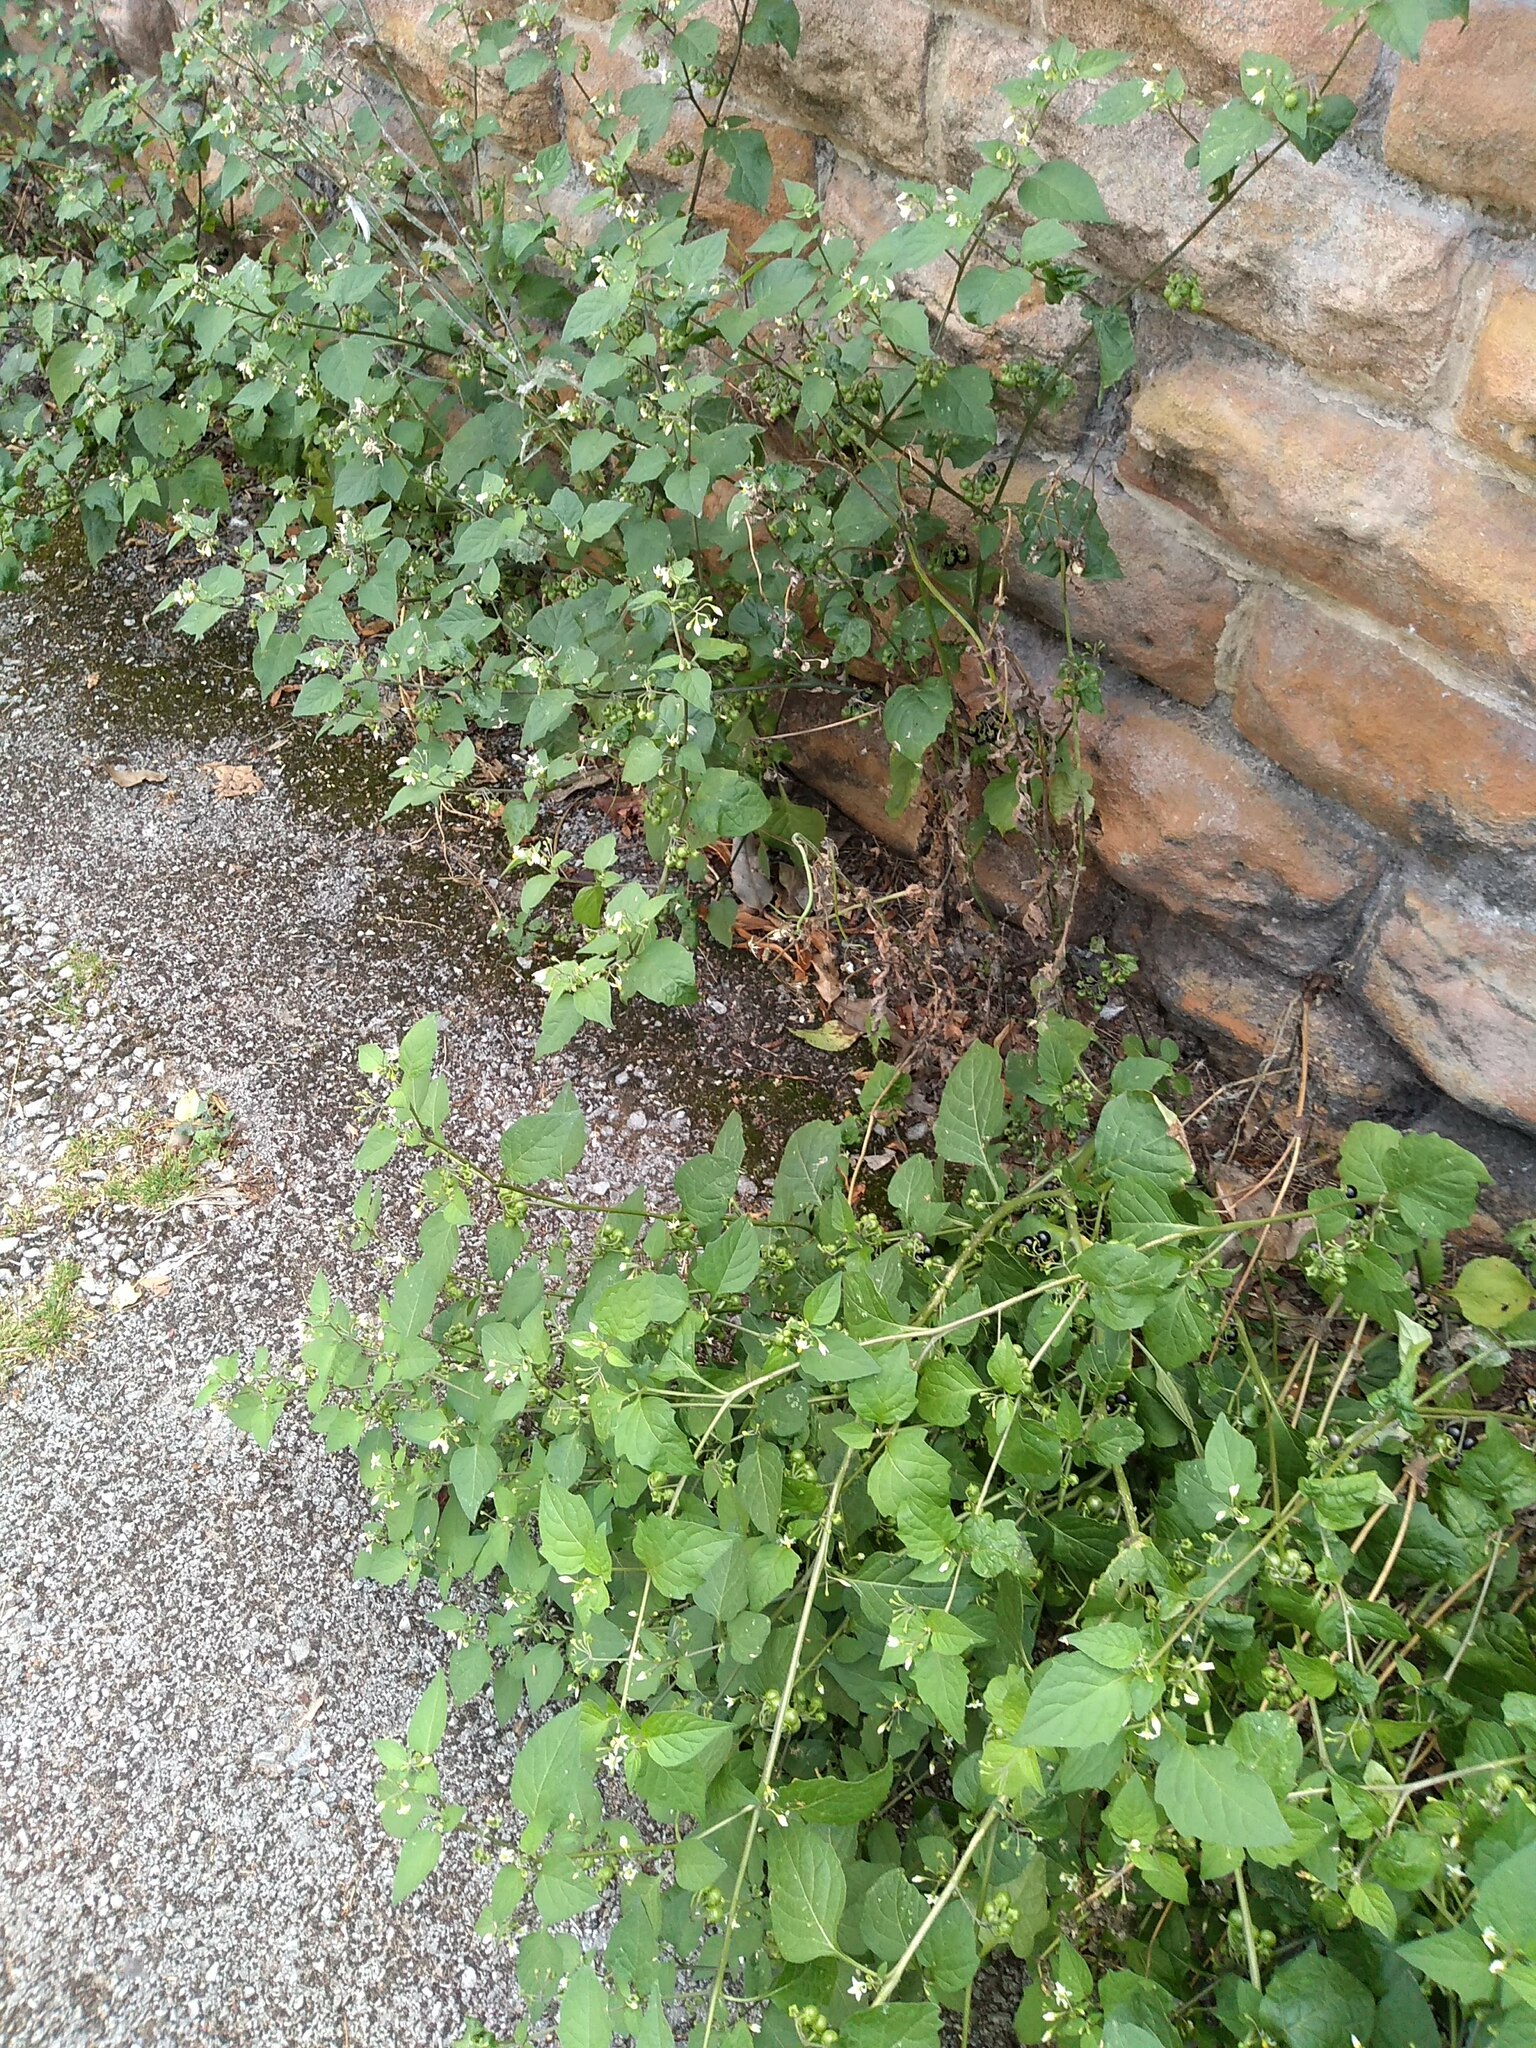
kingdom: Plantae
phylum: Tracheophyta
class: Magnoliopsida
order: Solanales
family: Solanaceae
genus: Solanum
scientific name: Solanum nigrum
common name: Black nightshade
